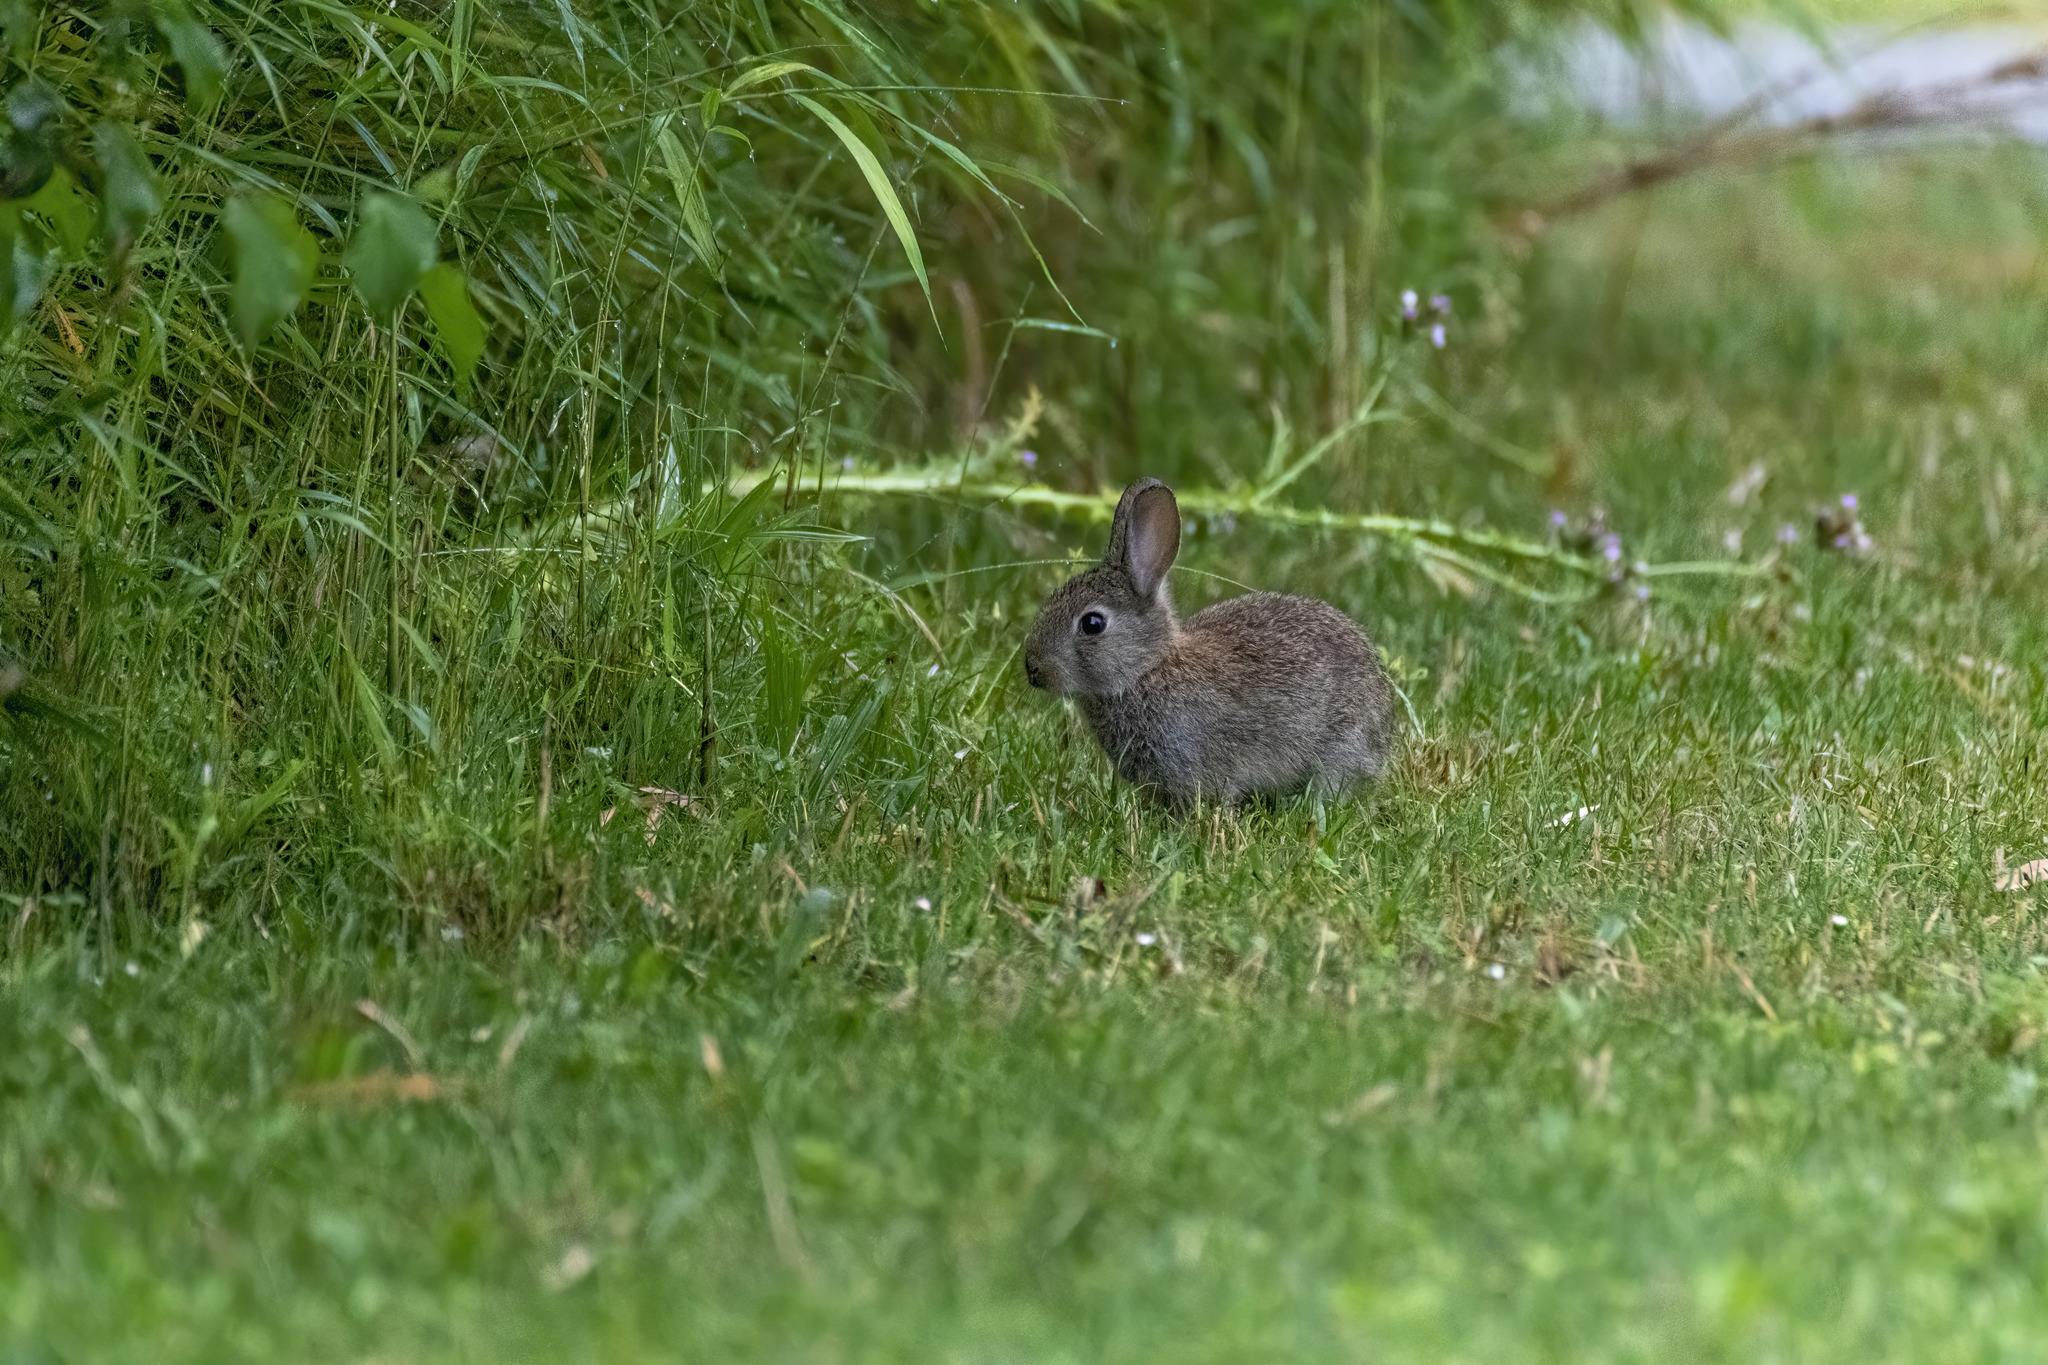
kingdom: Animalia
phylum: Chordata
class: Mammalia
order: Lagomorpha
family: Leporidae
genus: Oryctolagus
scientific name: Oryctolagus cuniculus
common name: European rabbit
